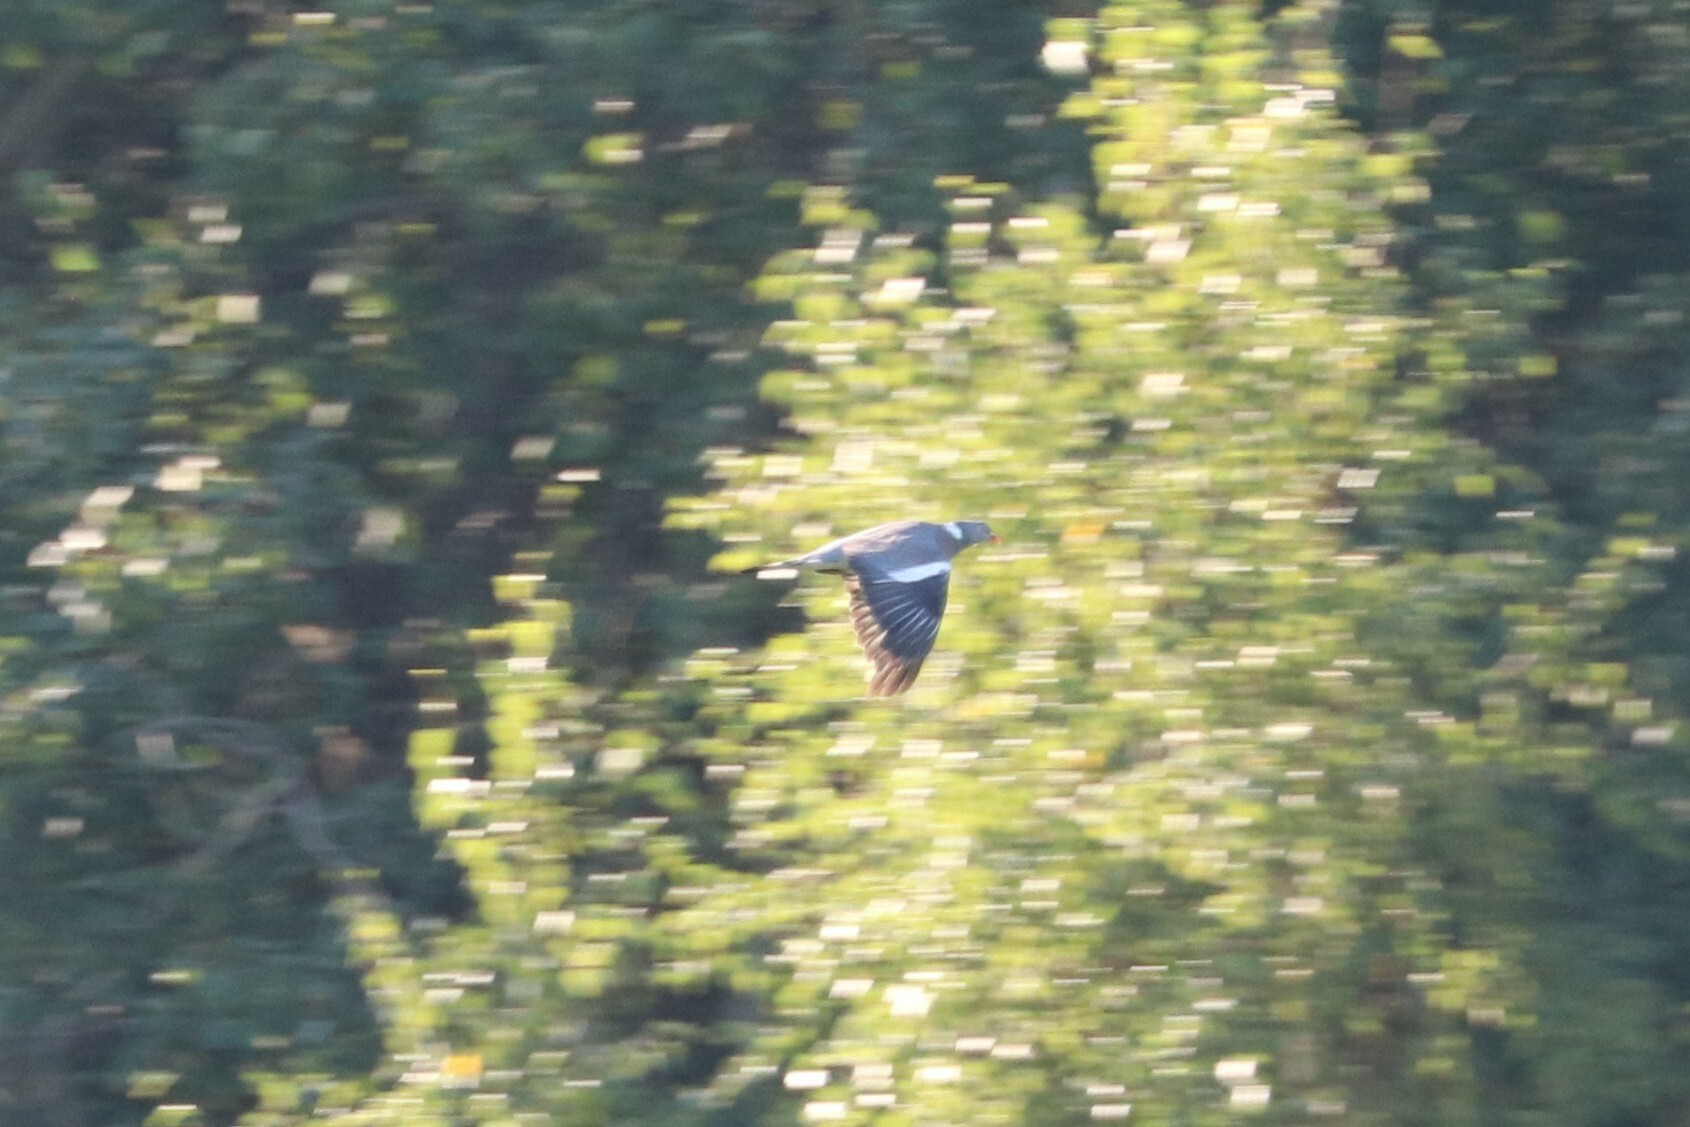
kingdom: Animalia
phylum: Chordata
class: Aves
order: Columbiformes
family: Columbidae
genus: Columba
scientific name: Columba palumbus
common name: Common wood pigeon
